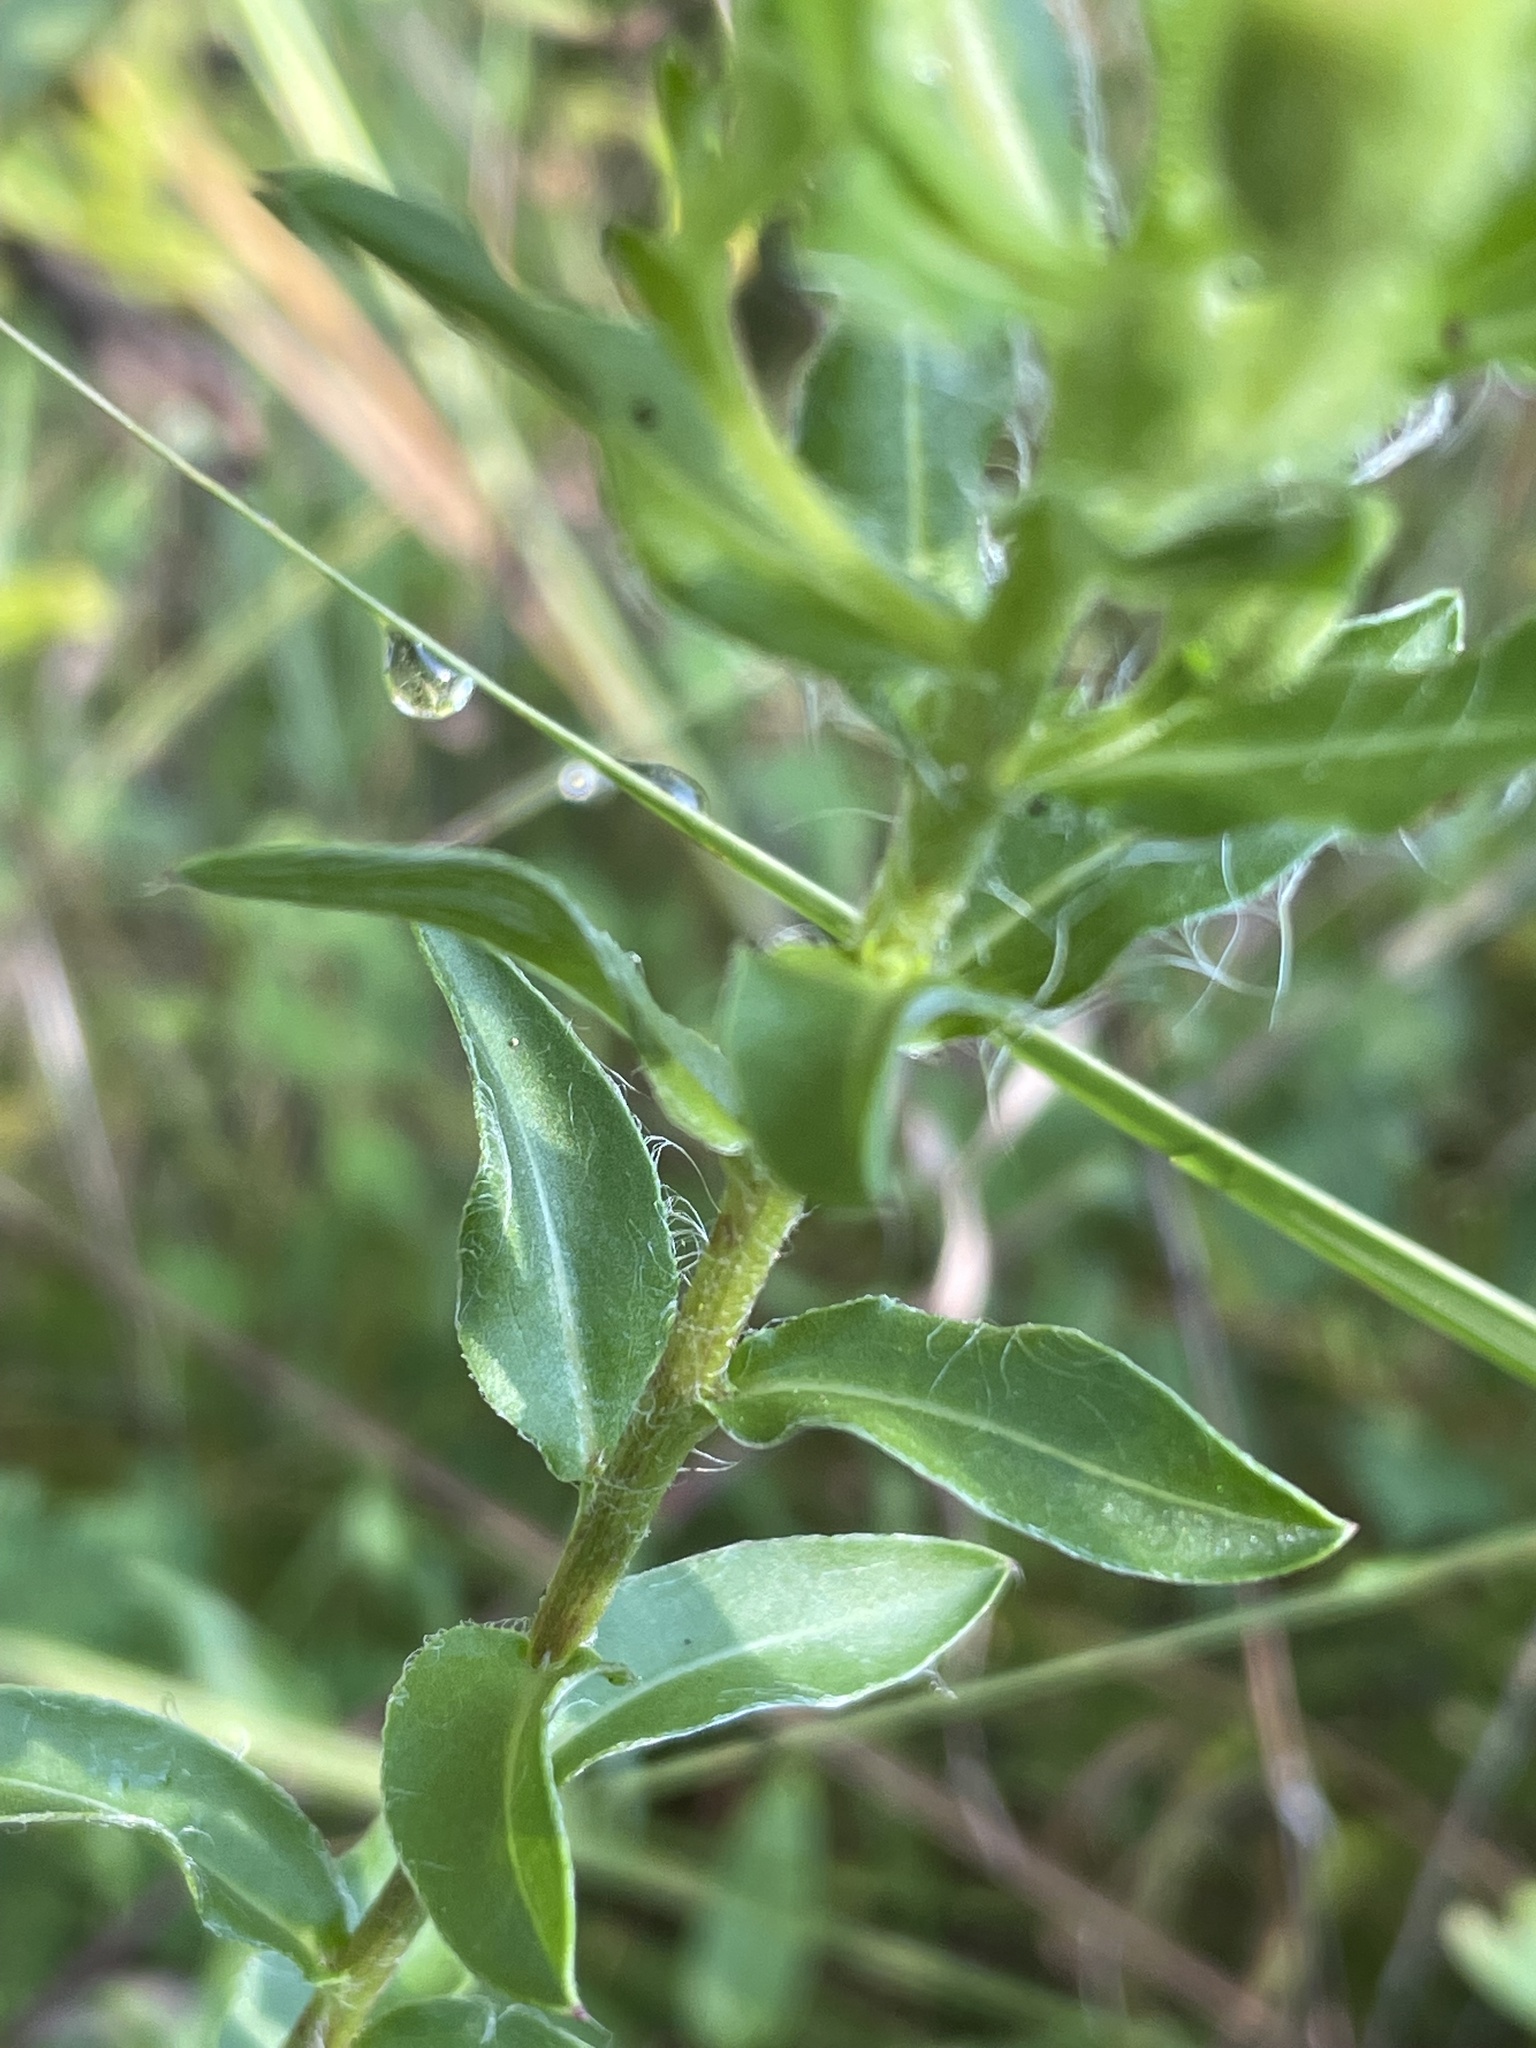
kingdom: Plantae
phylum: Tracheophyta
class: Magnoliopsida
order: Asterales
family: Asteraceae
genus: Chrysopsis
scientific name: Chrysopsis mariana
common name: Maryland golden-aster
